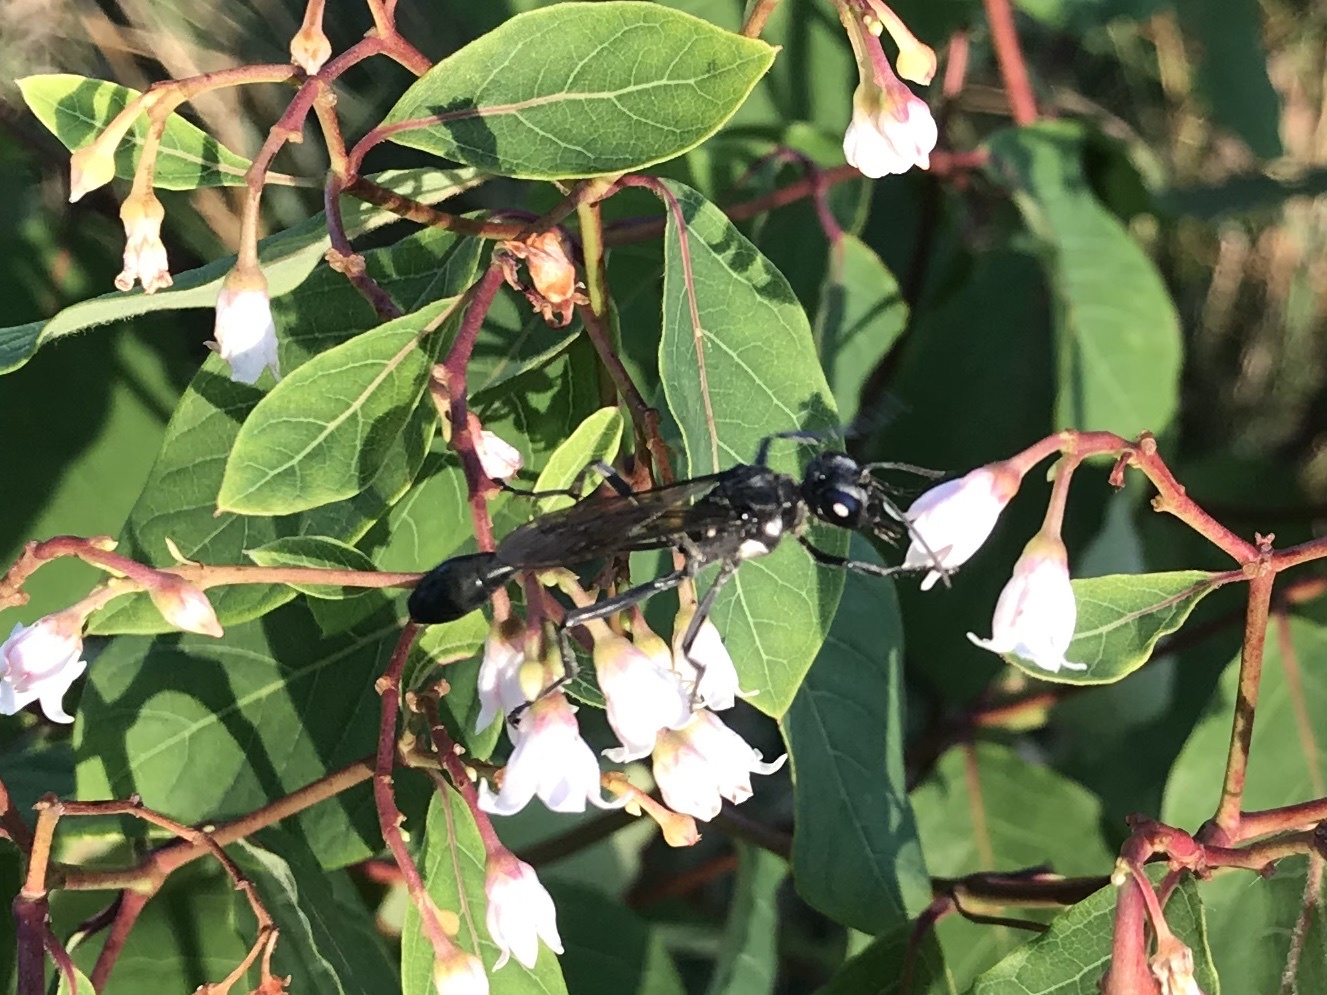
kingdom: Animalia
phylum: Arthropoda
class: Insecta
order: Hymenoptera
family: Sphecidae
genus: Eremnophila
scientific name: Eremnophila aureonotata
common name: Gold-marked thread-waisted wasp
